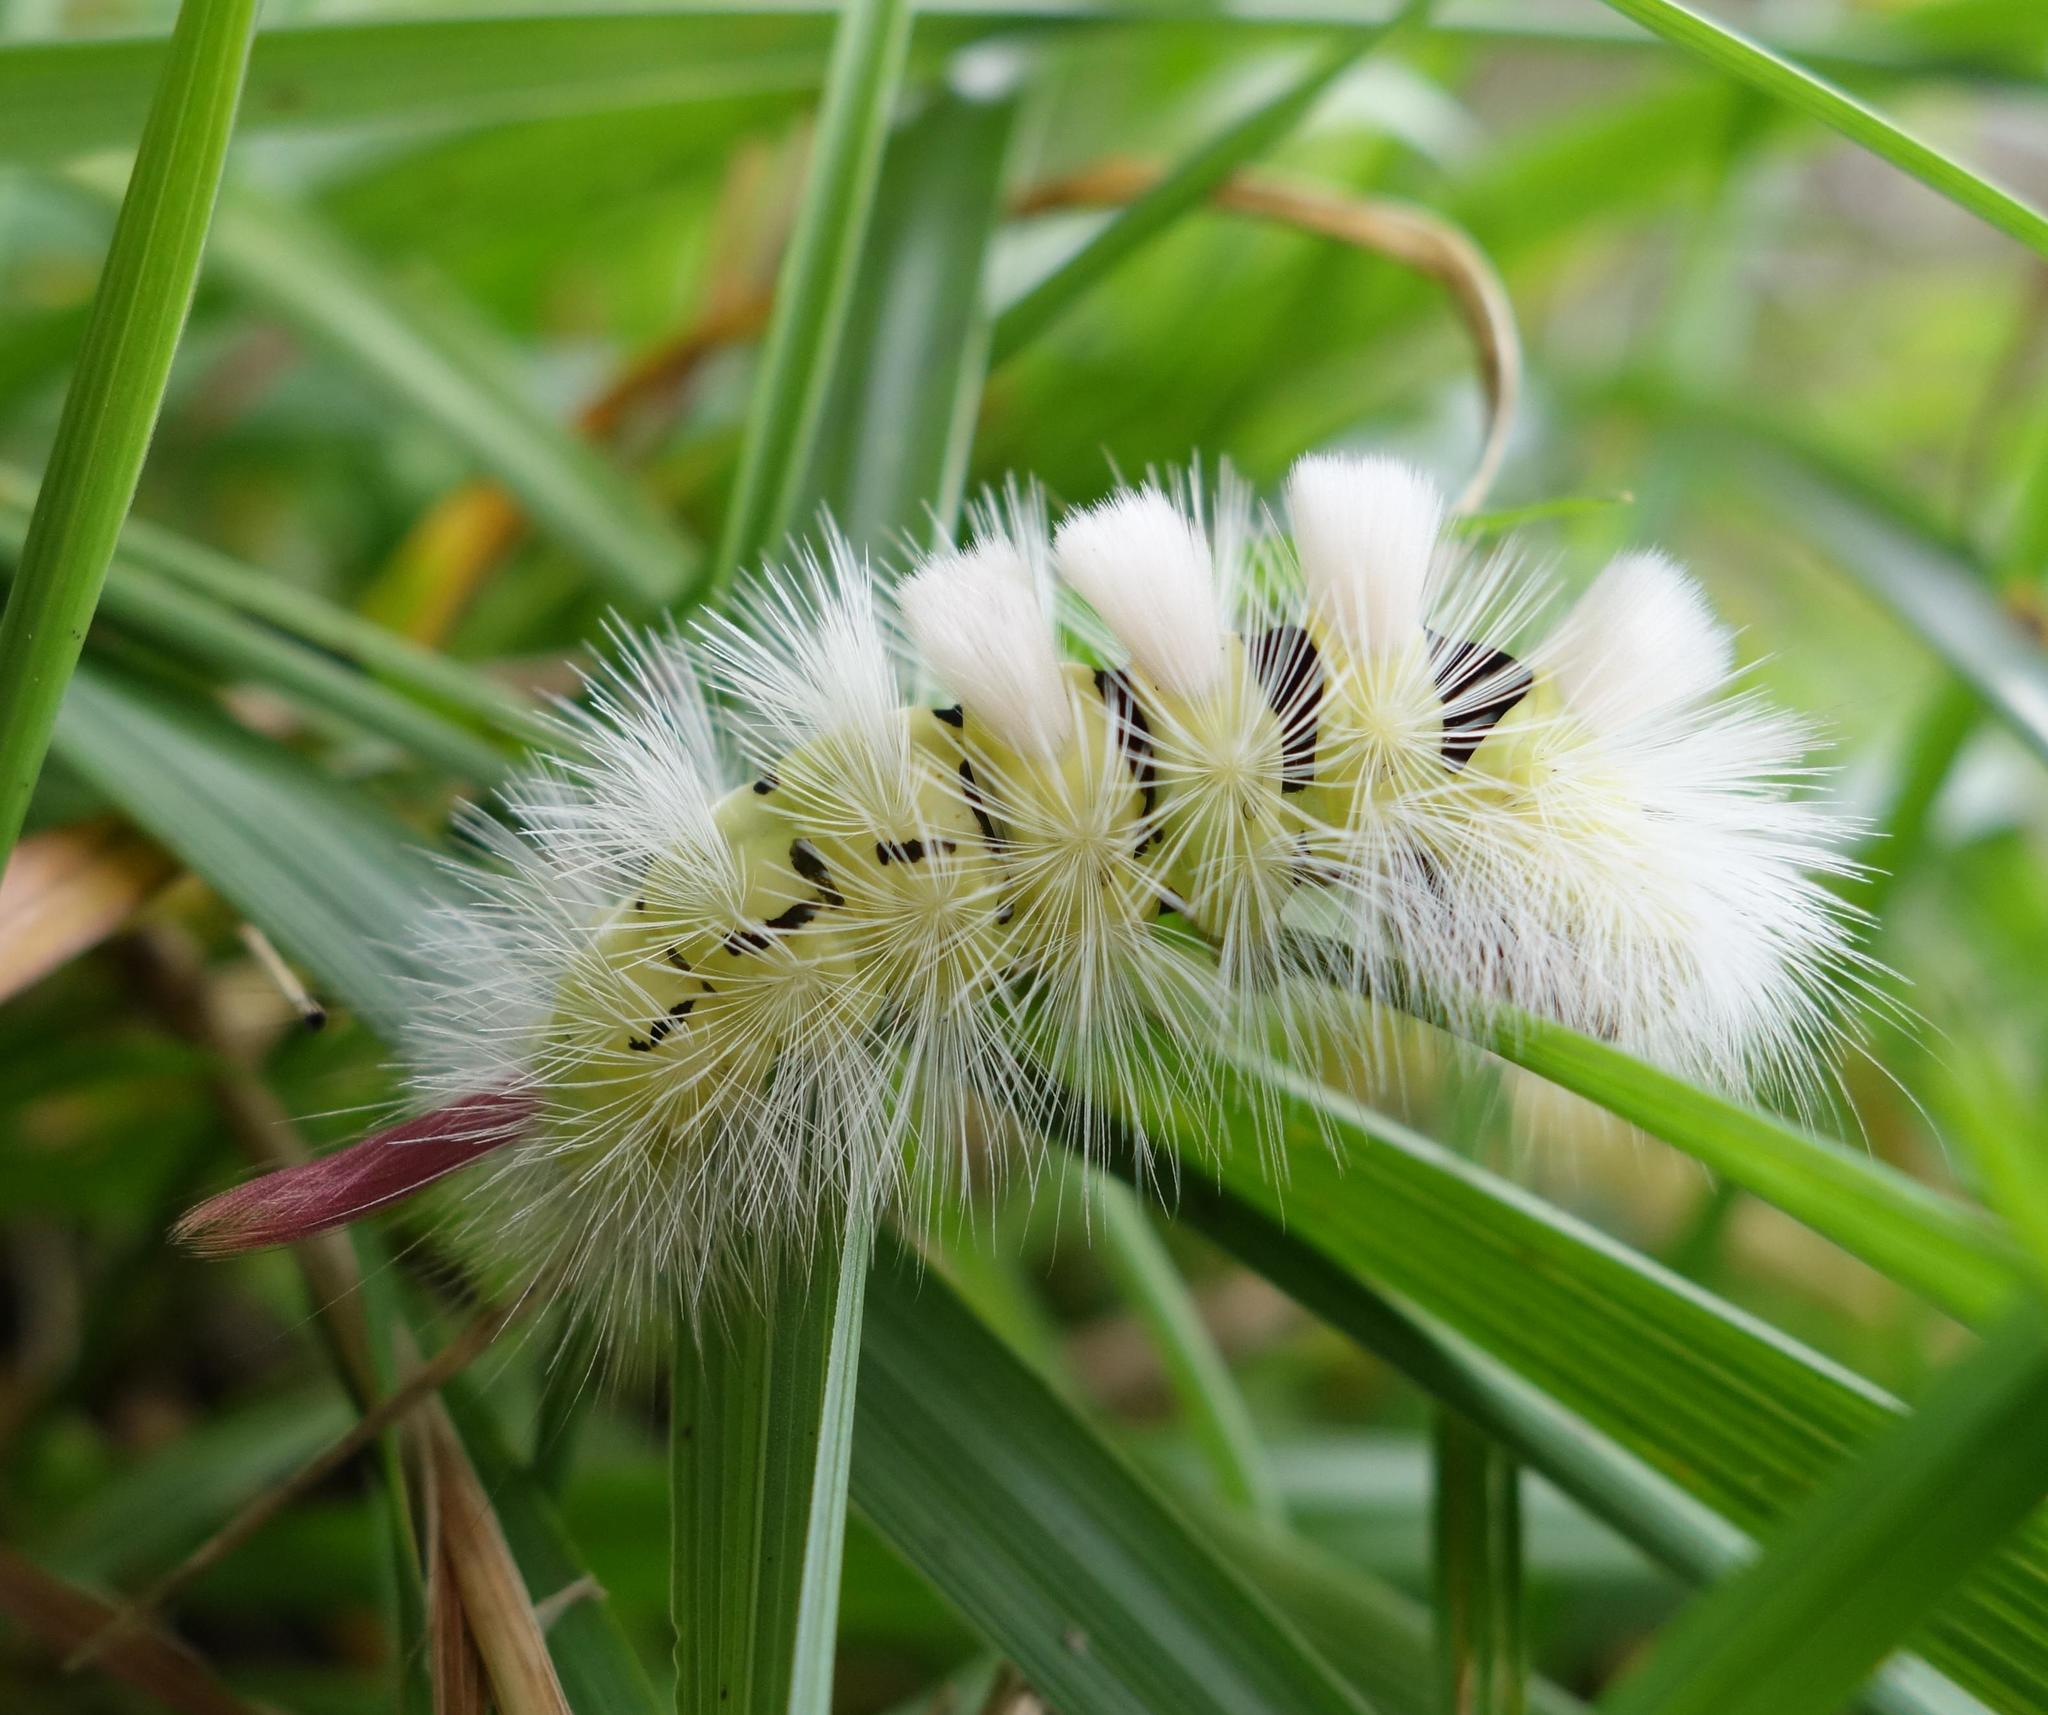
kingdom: Animalia
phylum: Arthropoda
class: Insecta
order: Lepidoptera
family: Erebidae
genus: Calliteara
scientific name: Calliteara pudibunda
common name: Pale tussock
